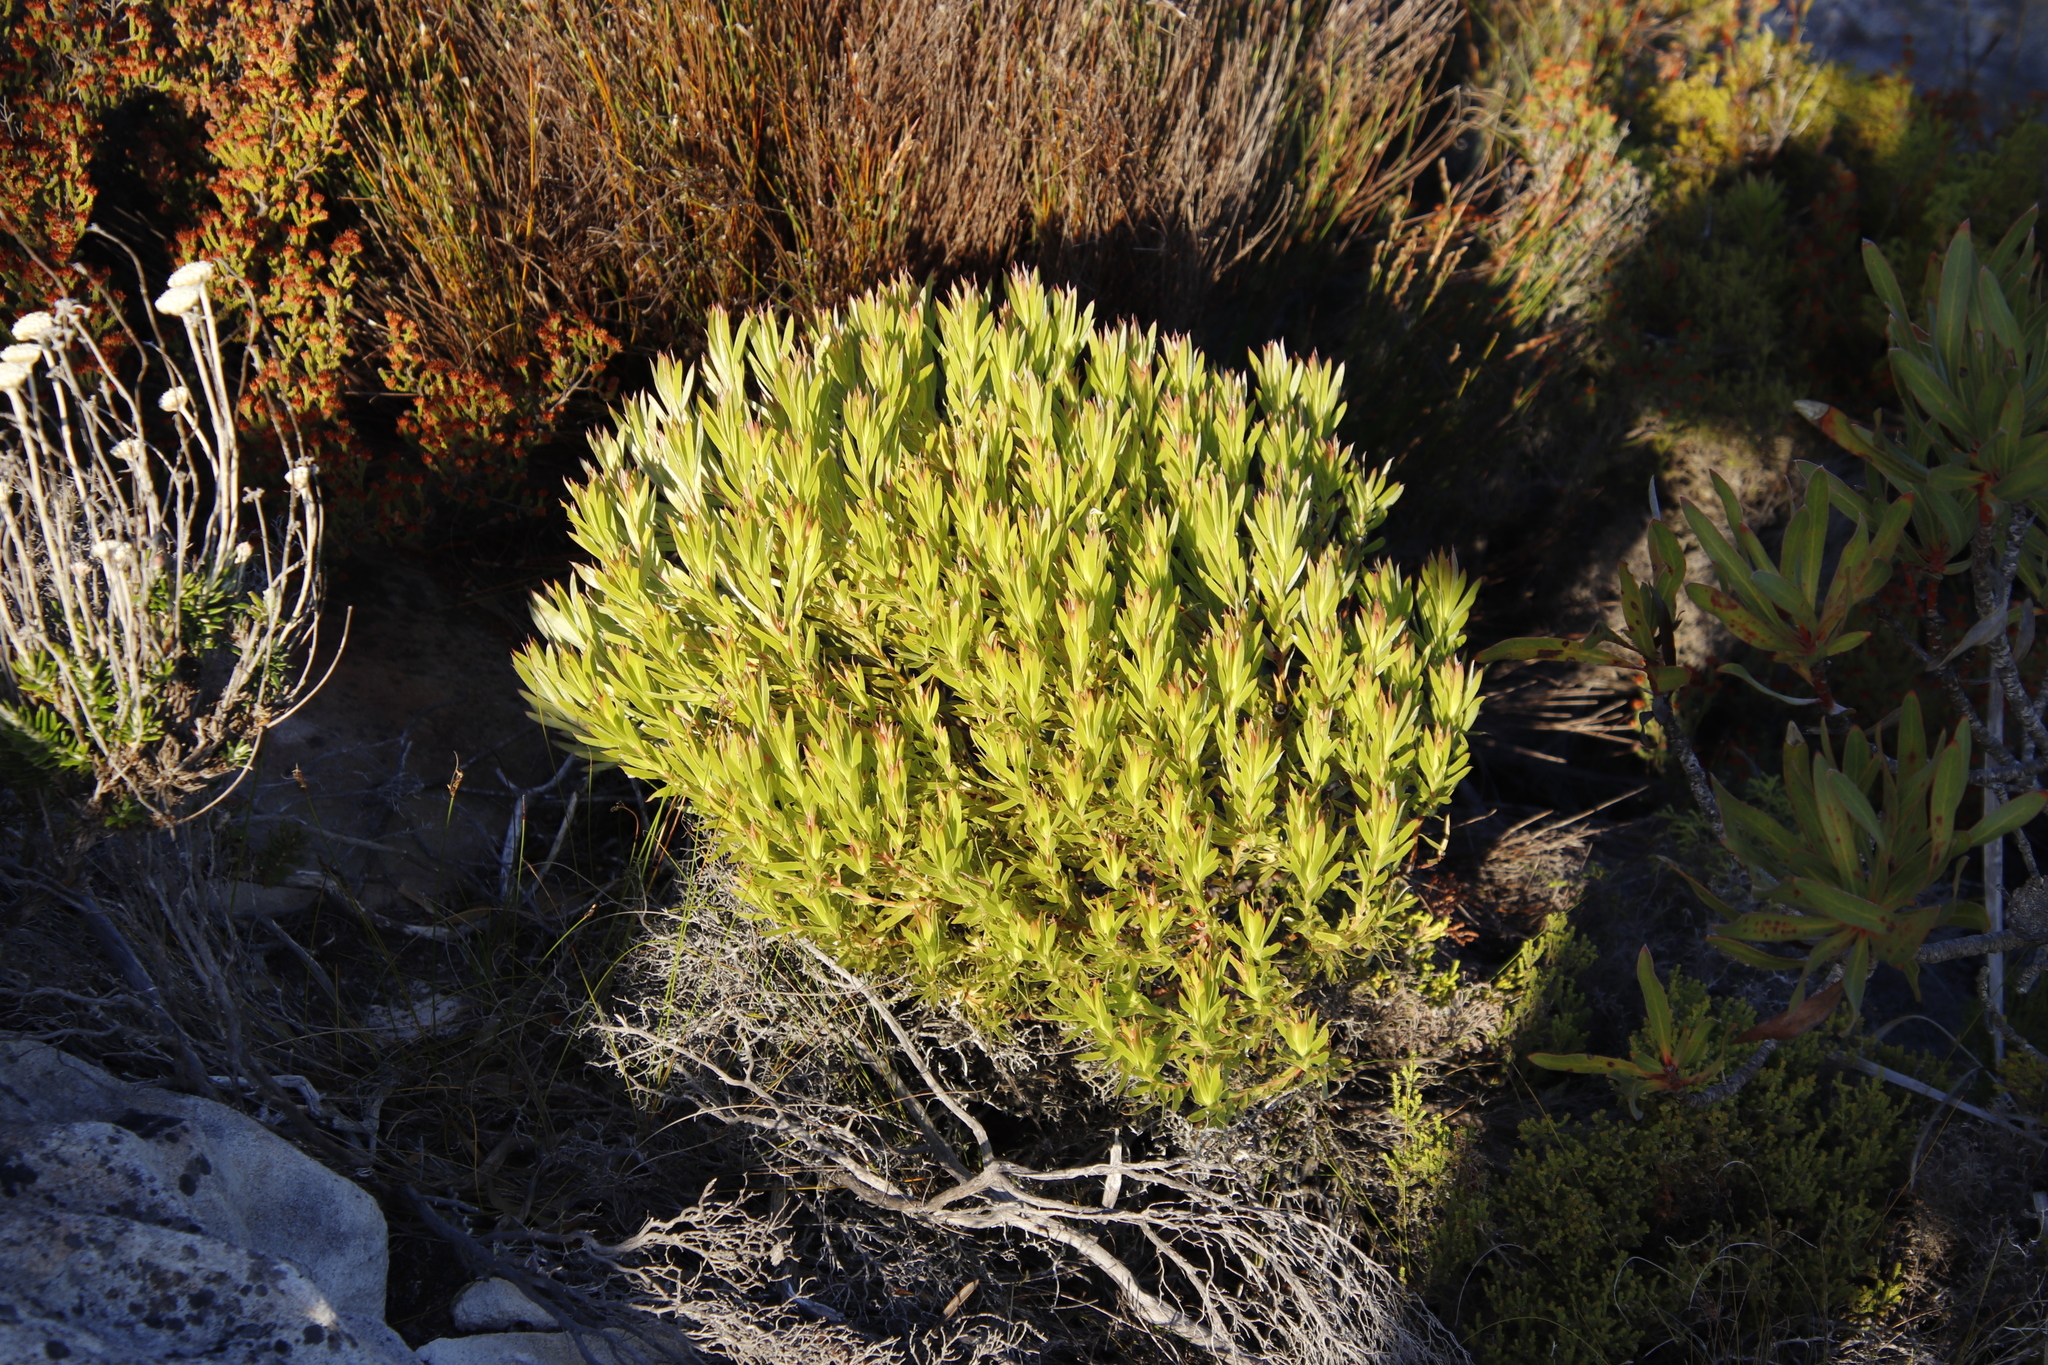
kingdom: Plantae
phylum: Tracheophyta
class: Magnoliopsida
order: Proteales
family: Proteaceae
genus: Leucadendron
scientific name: Leucadendron xanthoconus
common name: Sickle-leaf conebush
